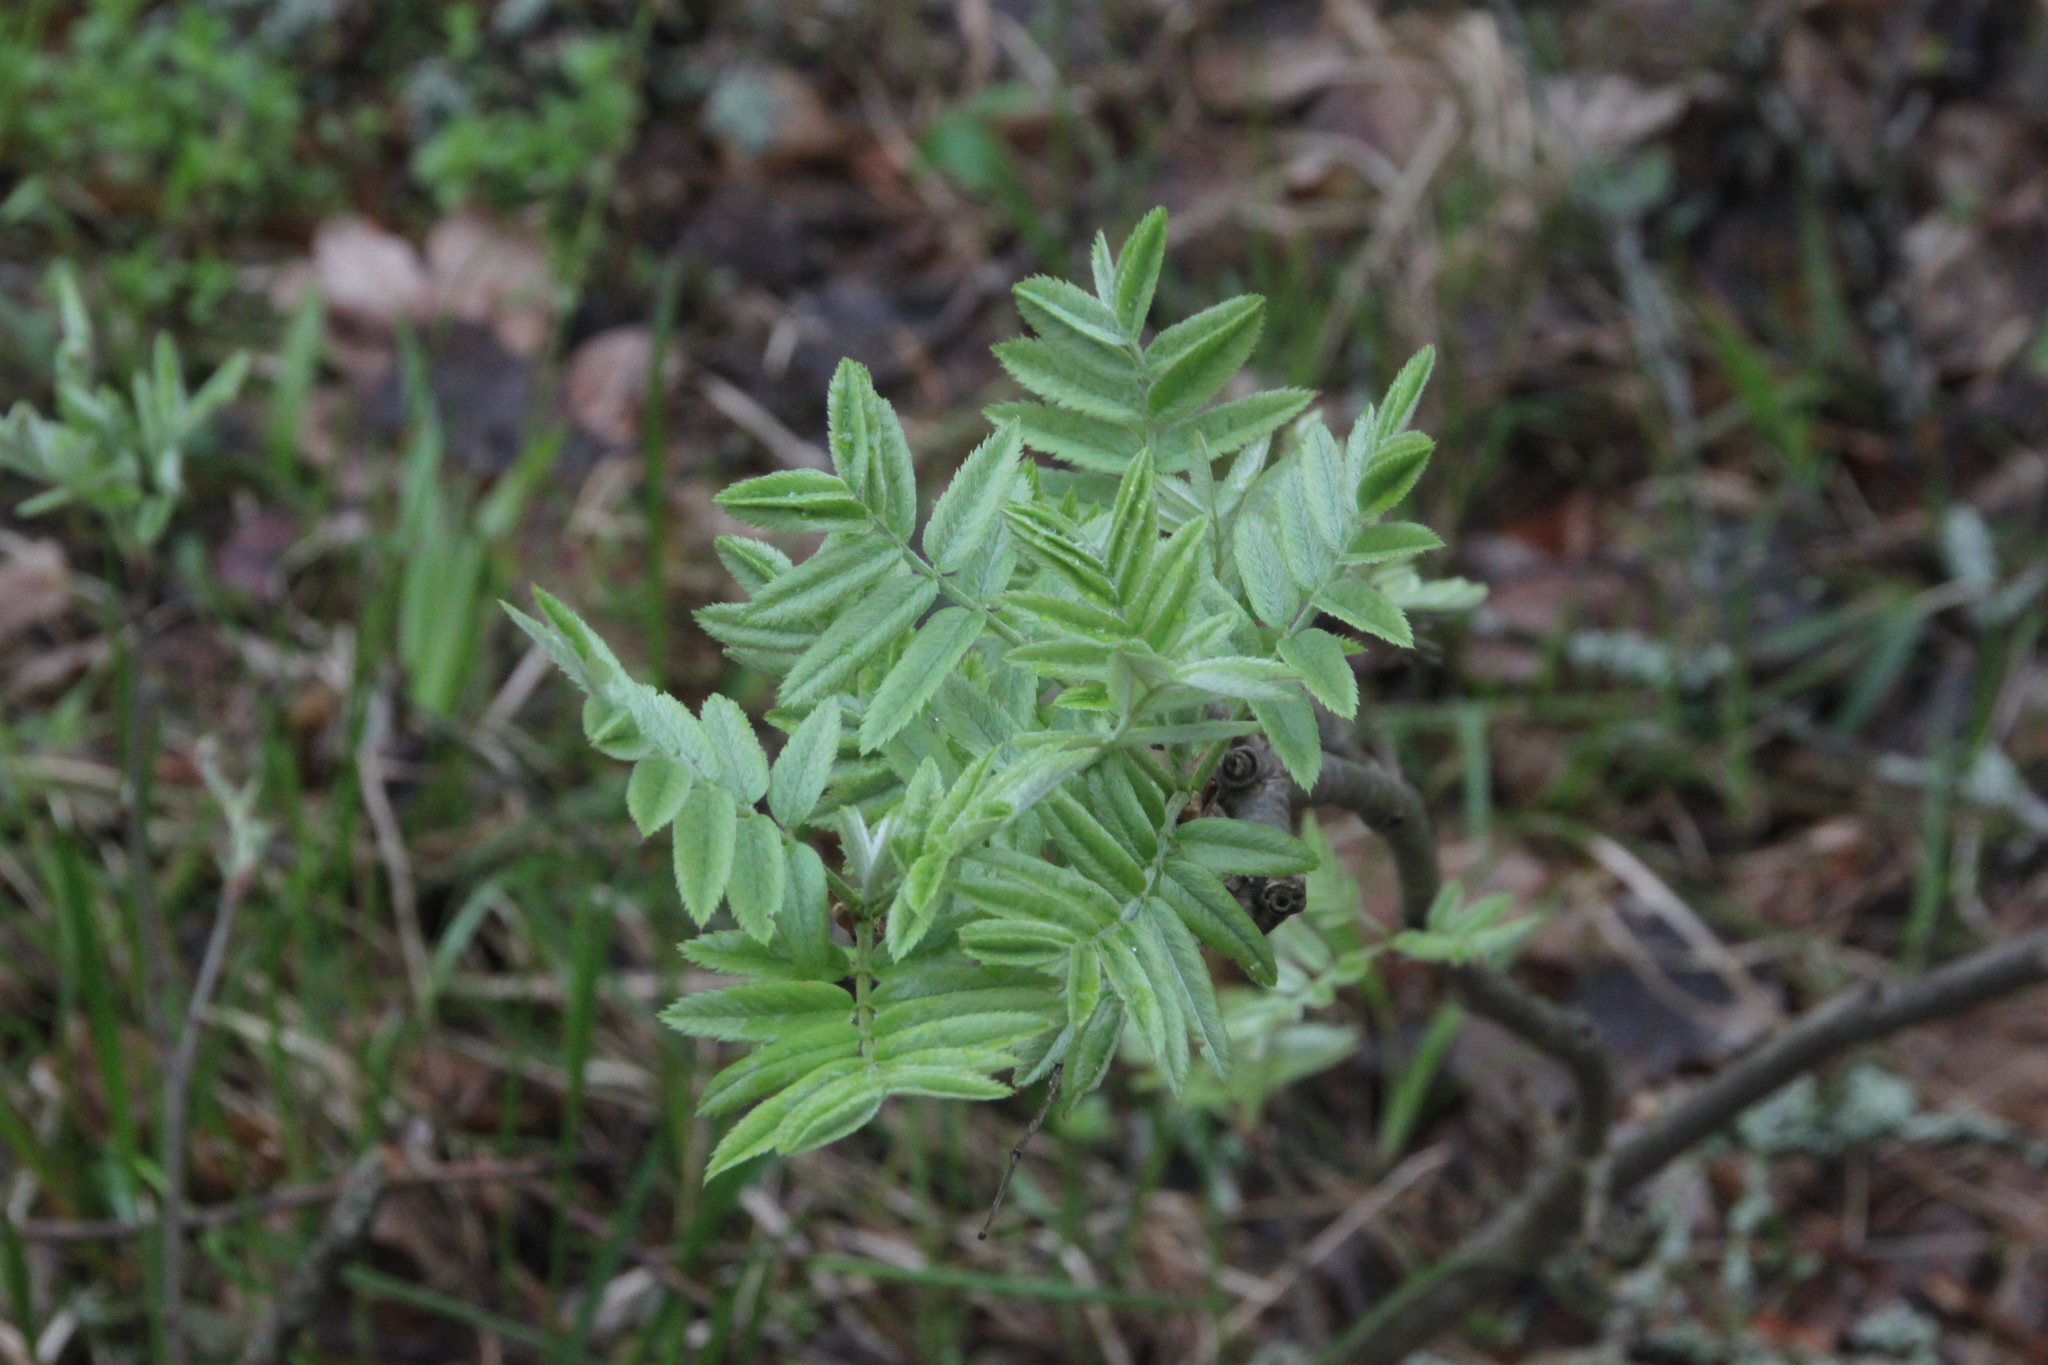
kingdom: Plantae
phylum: Tracheophyta
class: Magnoliopsida
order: Rosales
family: Rosaceae
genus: Sorbus
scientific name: Sorbus aucuparia
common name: Rowan
